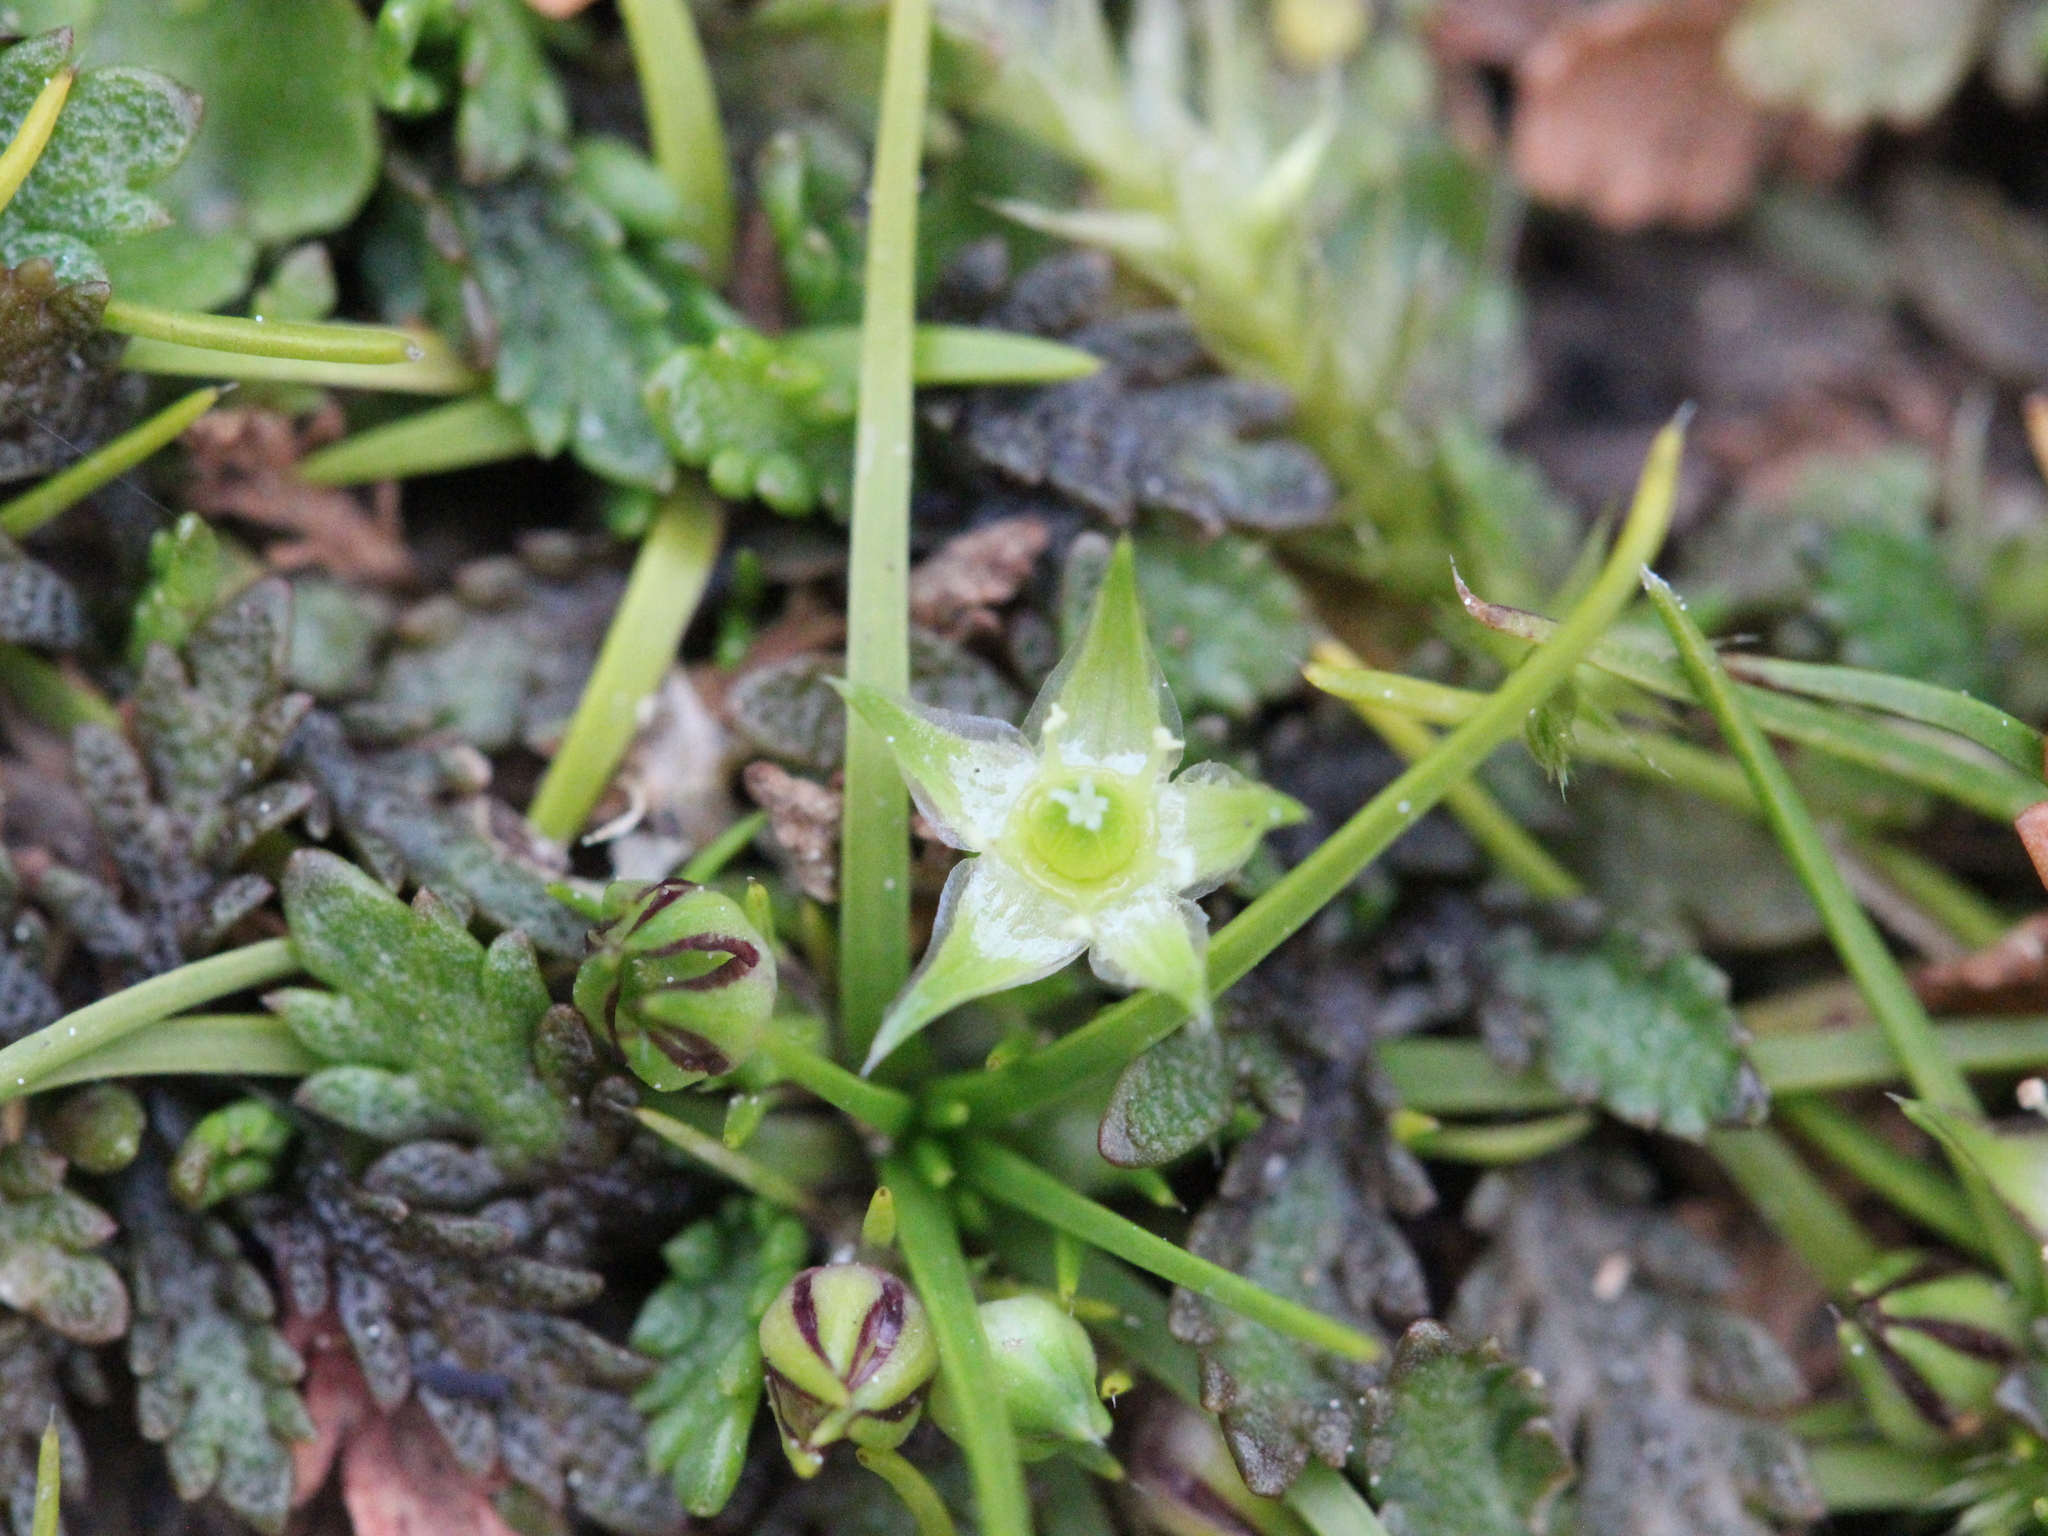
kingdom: Plantae
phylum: Tracheophyta
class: Magnoliopsida
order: Caryophyllales
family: Caryophyllaceae
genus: Colobanthus
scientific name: Colobanthus muelleri
